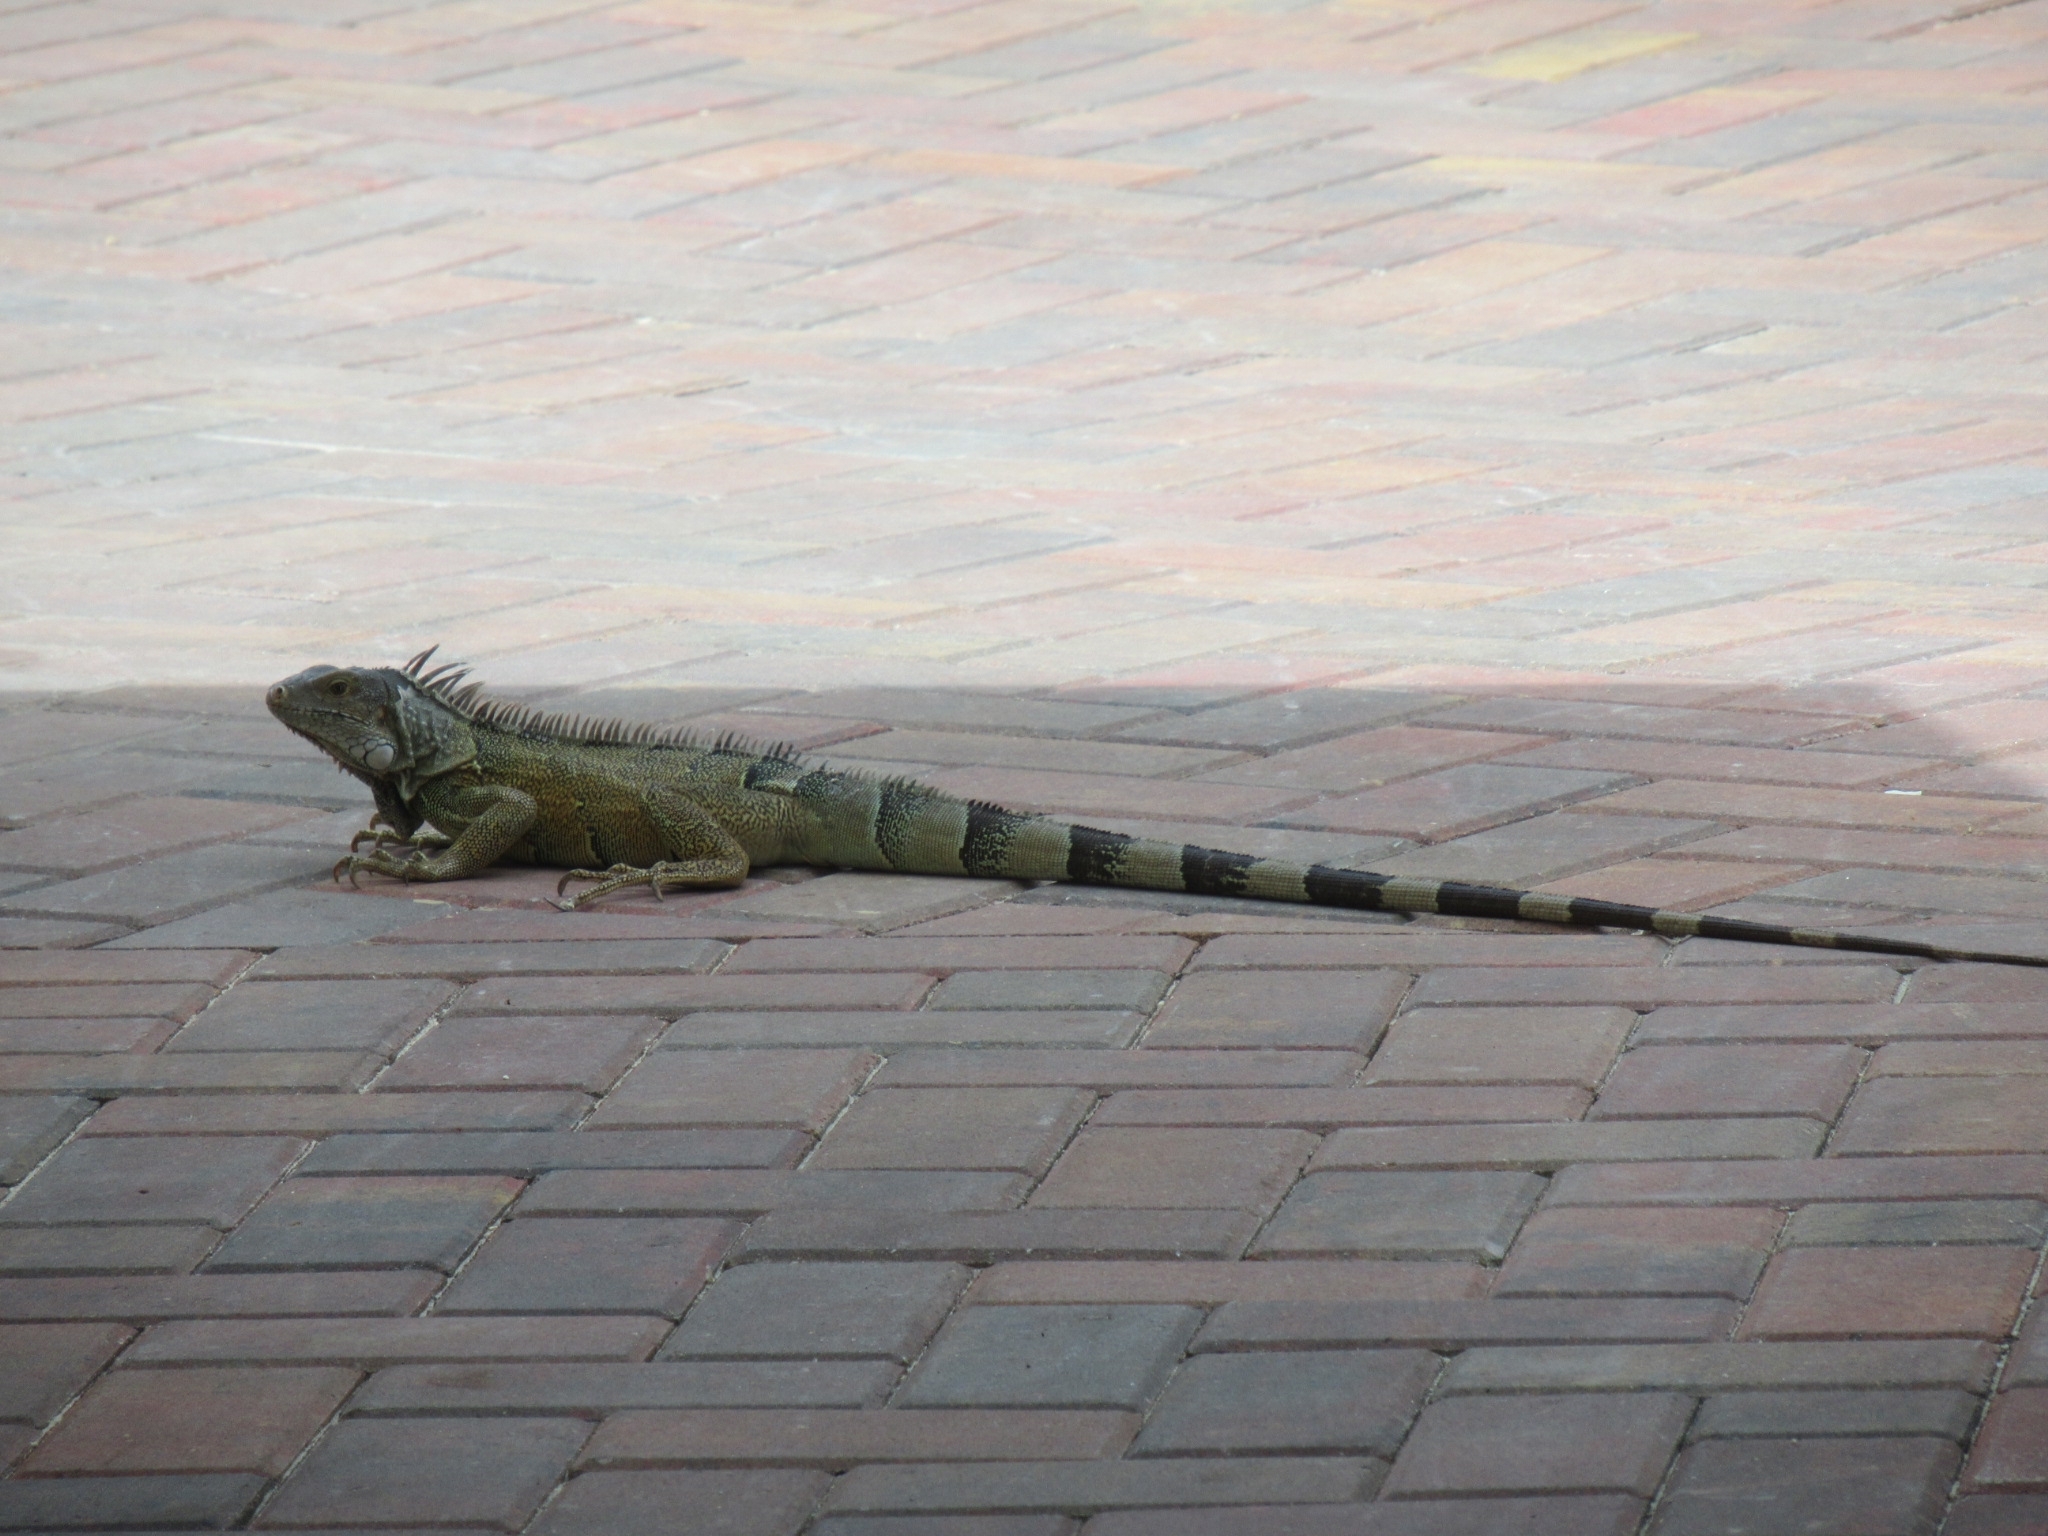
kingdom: Animalia
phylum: Chordata
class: Squamata
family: Iguanidae
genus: Iguana
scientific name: Iguana iguana
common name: Green iguana
